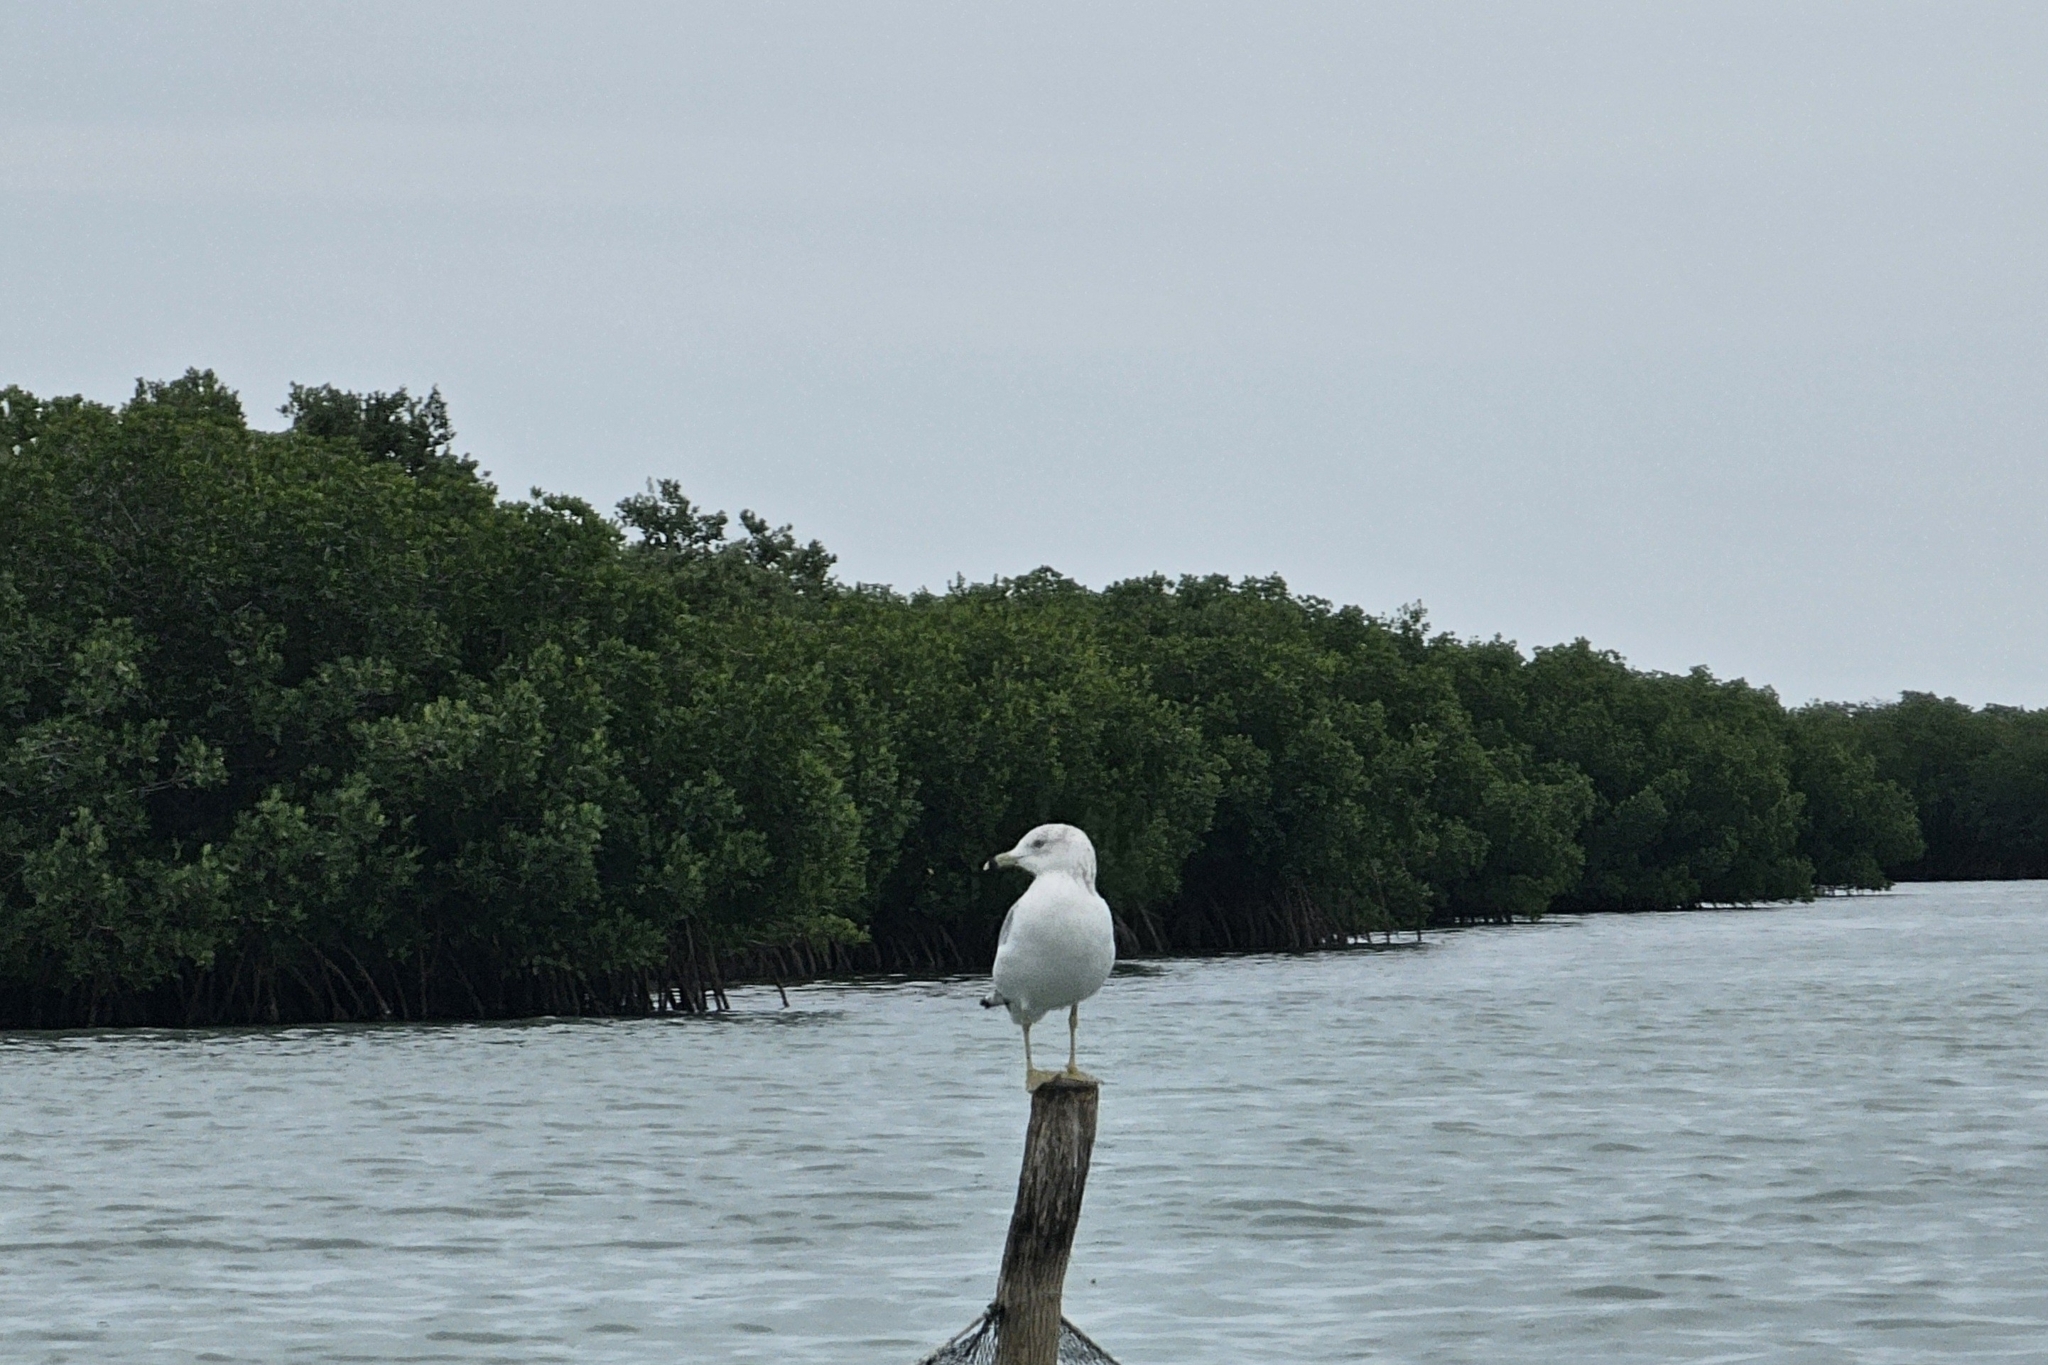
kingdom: Animalia
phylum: Chordata
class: Aves
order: Charadriiformes
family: Laridae
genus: Larus
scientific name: Larus delawarensis
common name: Ring-billed gull
